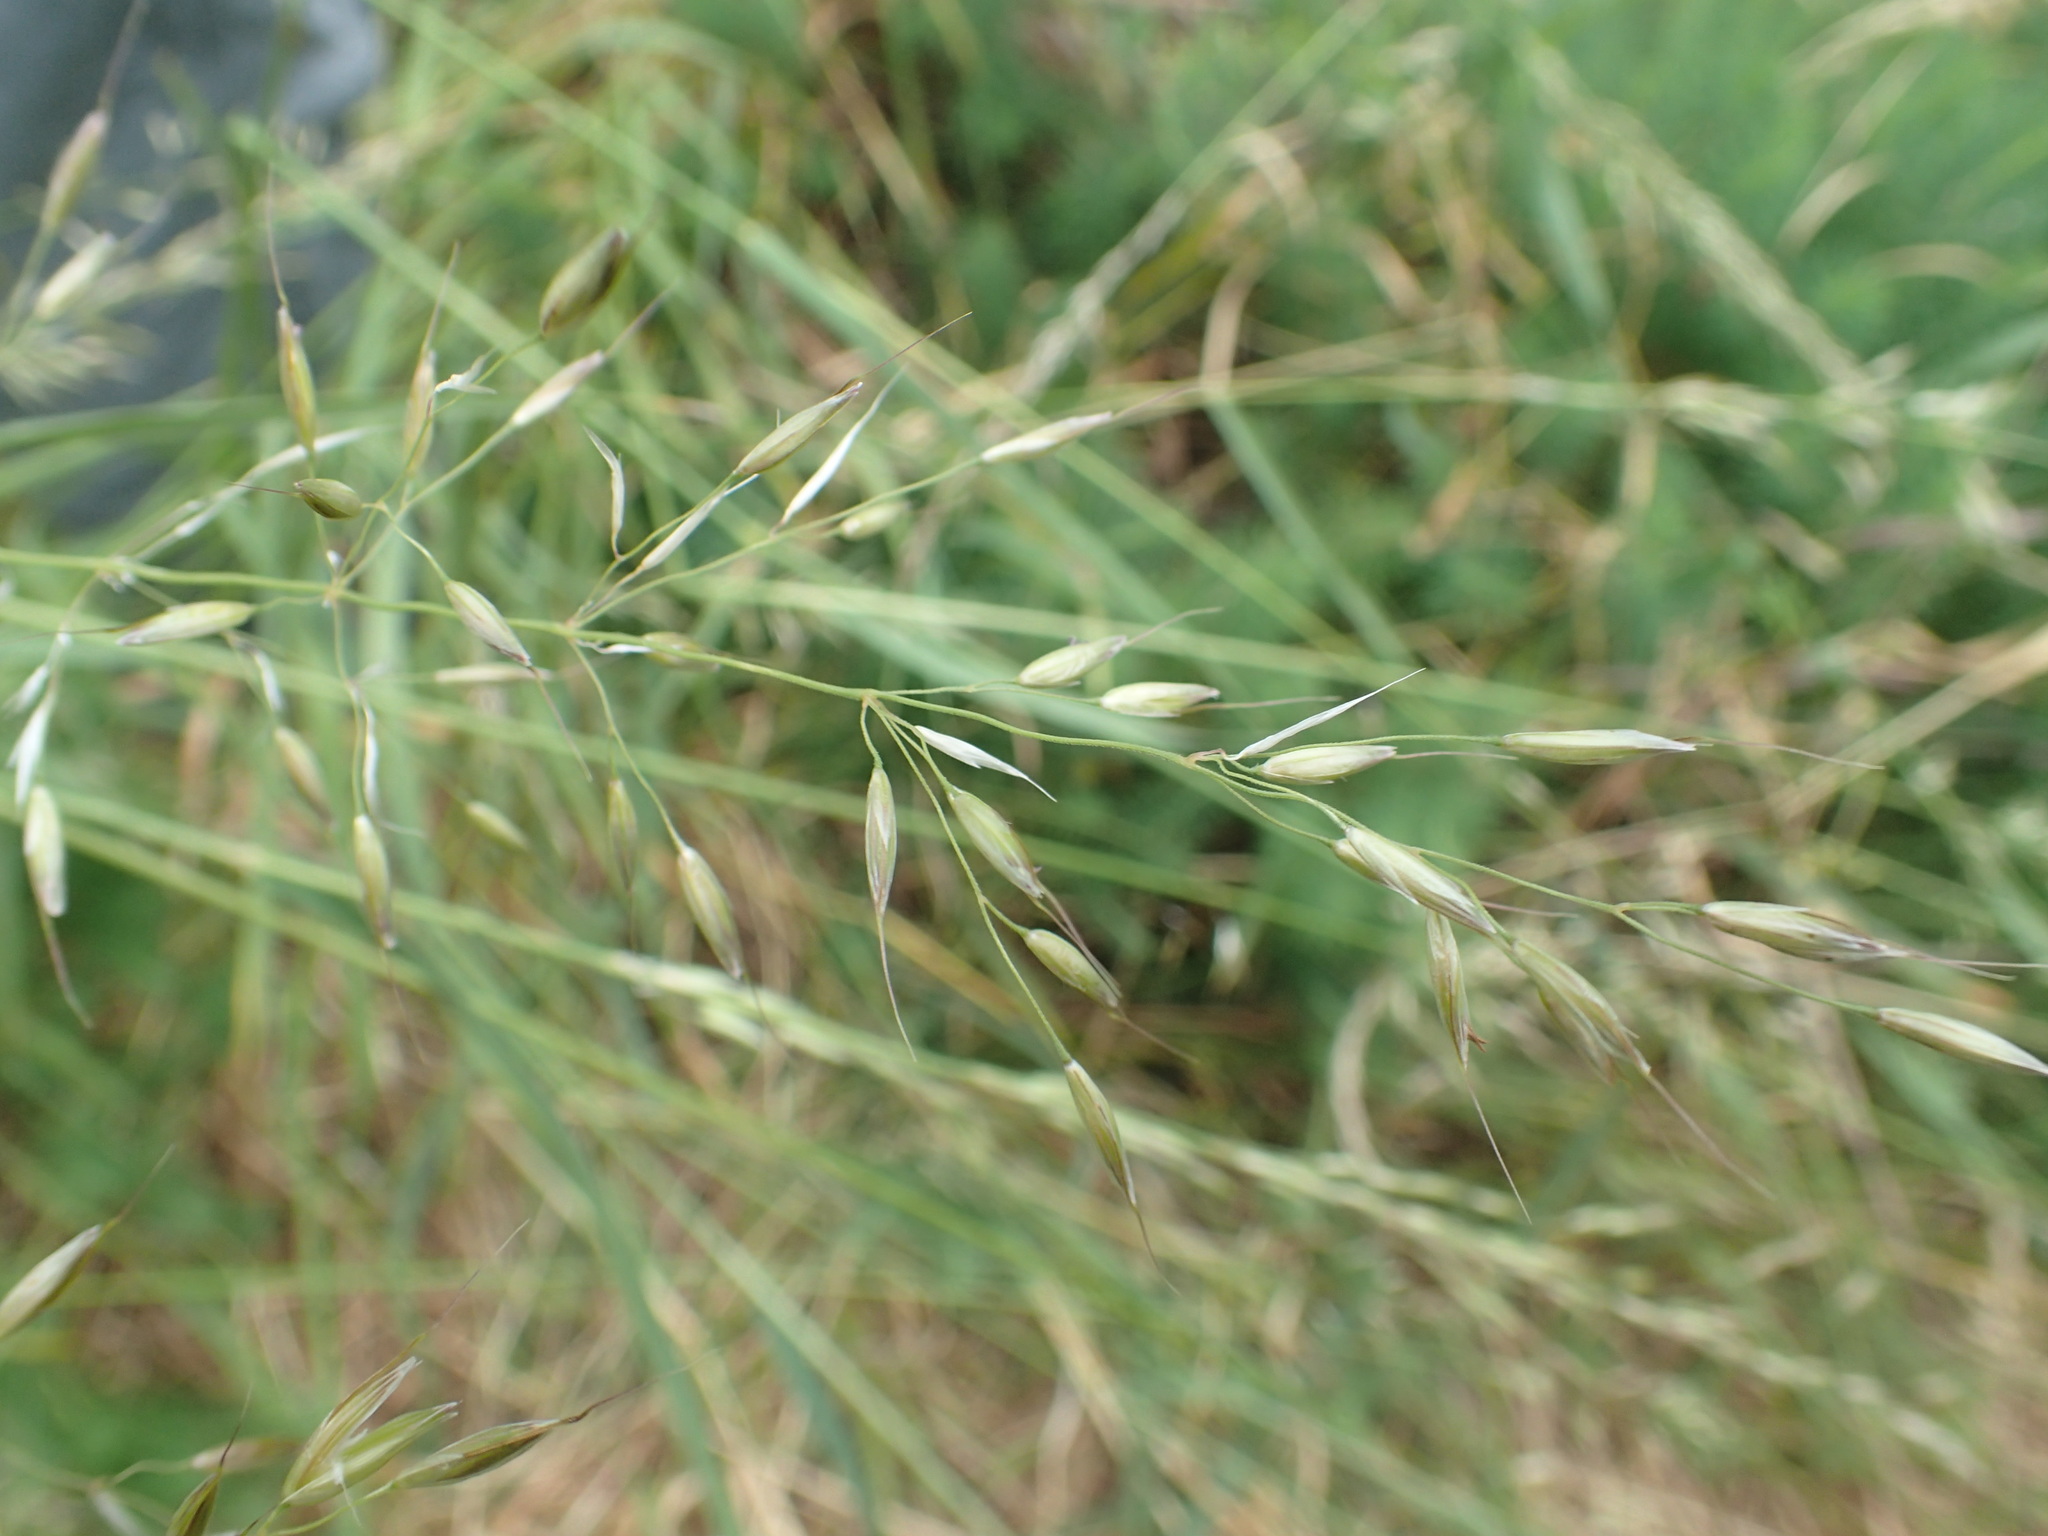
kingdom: Plantae
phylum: Tracheophyta
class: Liliopsida
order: Poales
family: Poaceae
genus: Arrhenatherum
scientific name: Arrhenatherum elatius
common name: Tall oatgrass
